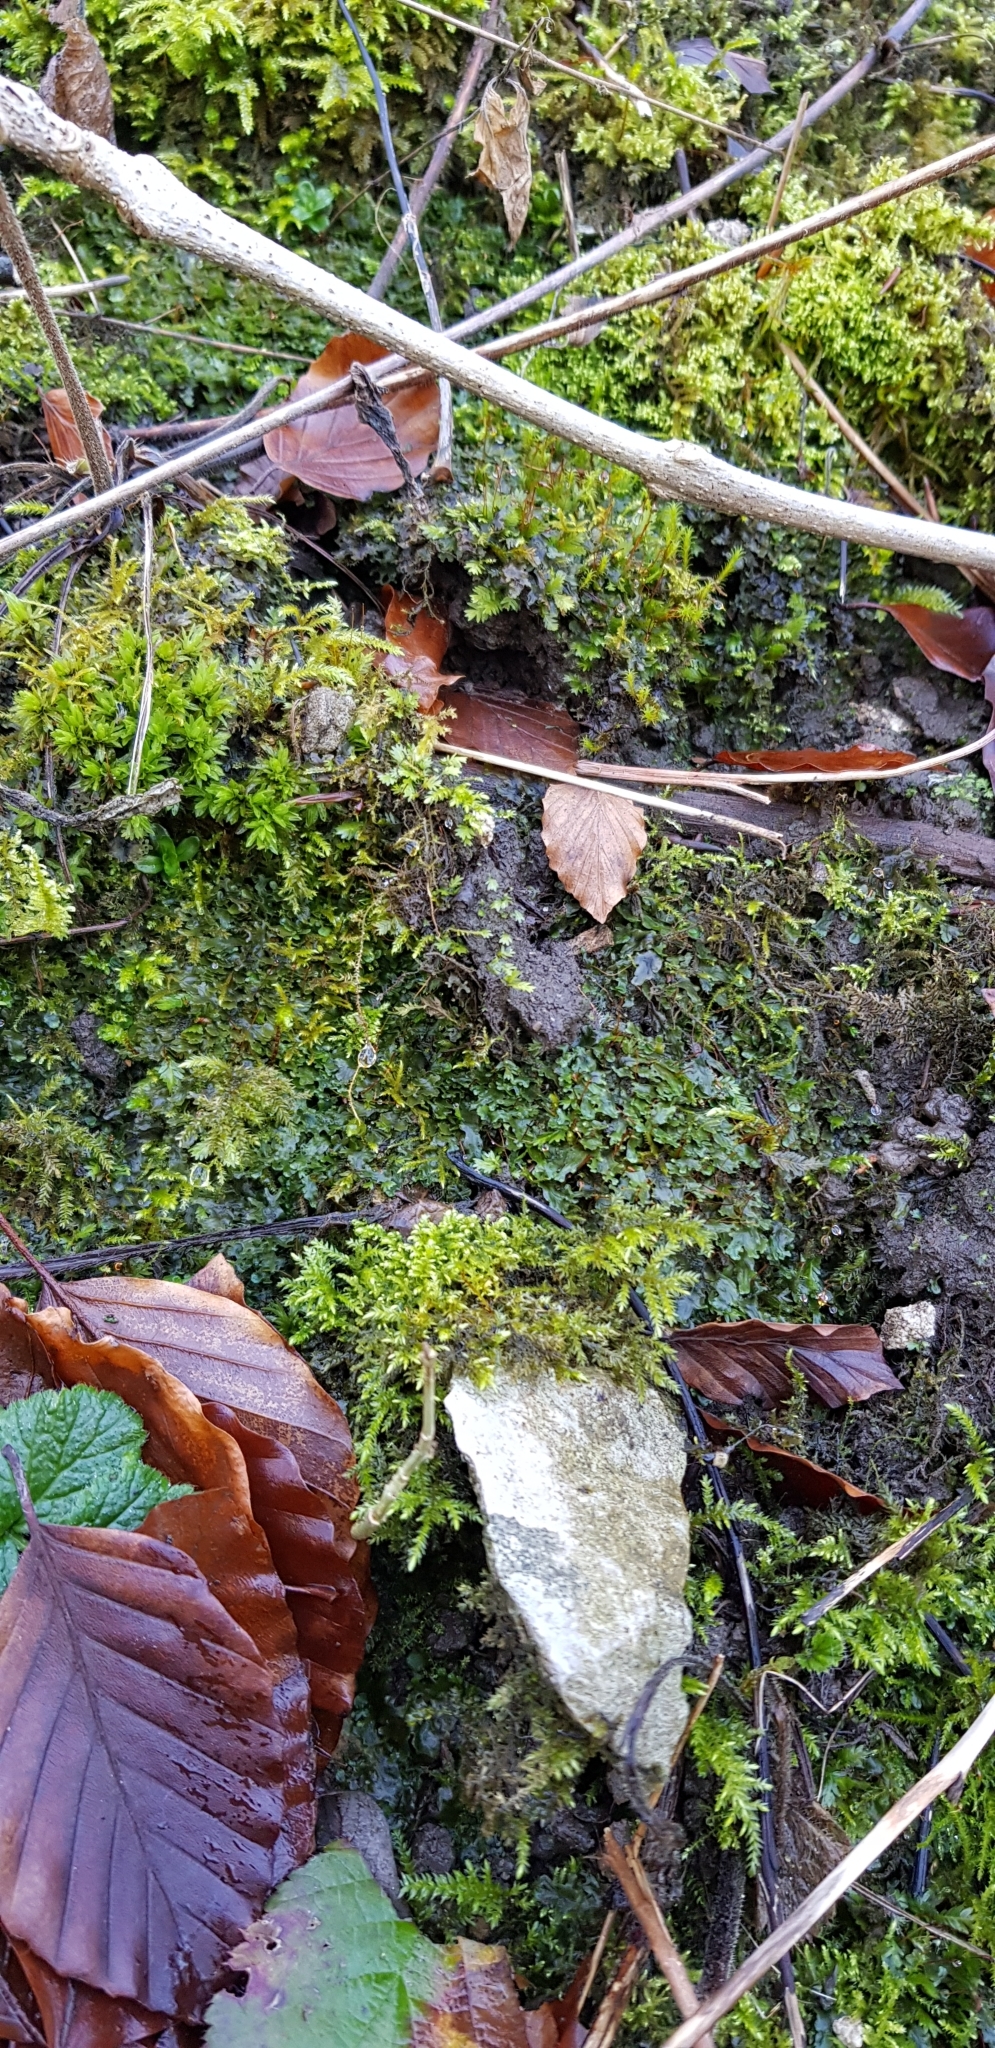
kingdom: Plantae
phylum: Marchantiophyta
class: Jungermanniopsida
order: Pelliales
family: Pelliaceae
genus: Apopellia
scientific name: Apopellia endiviifolia
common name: Endive pellia
